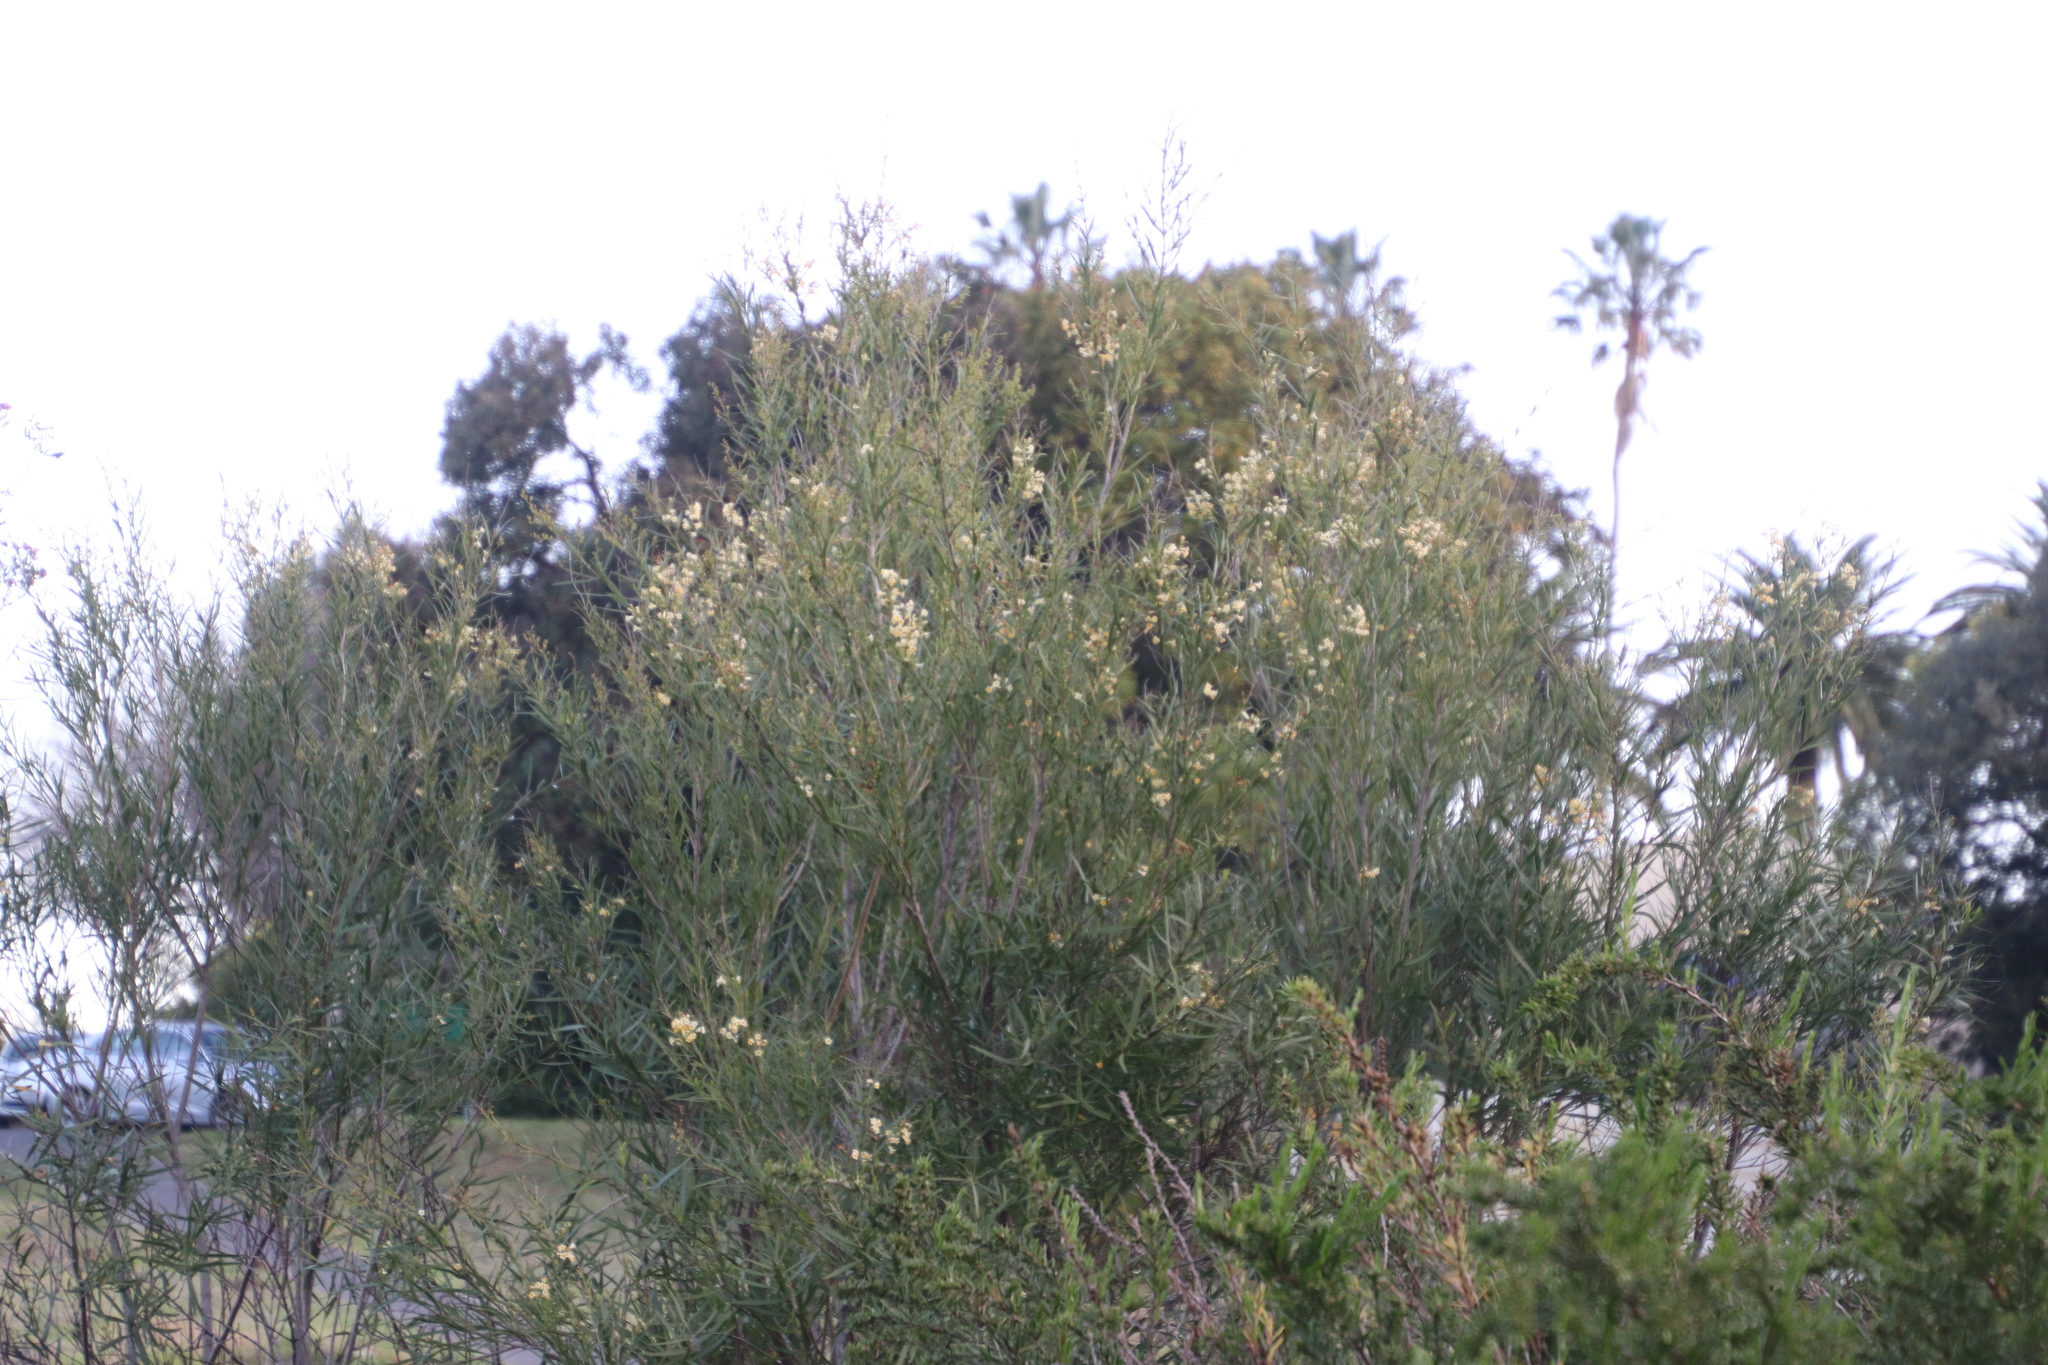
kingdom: Plantae
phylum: Tracheophyta
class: Magnoliopsida
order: Lamiales
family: Scrophulariaceae
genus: Freylinia
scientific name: Freylinia lanceolata
